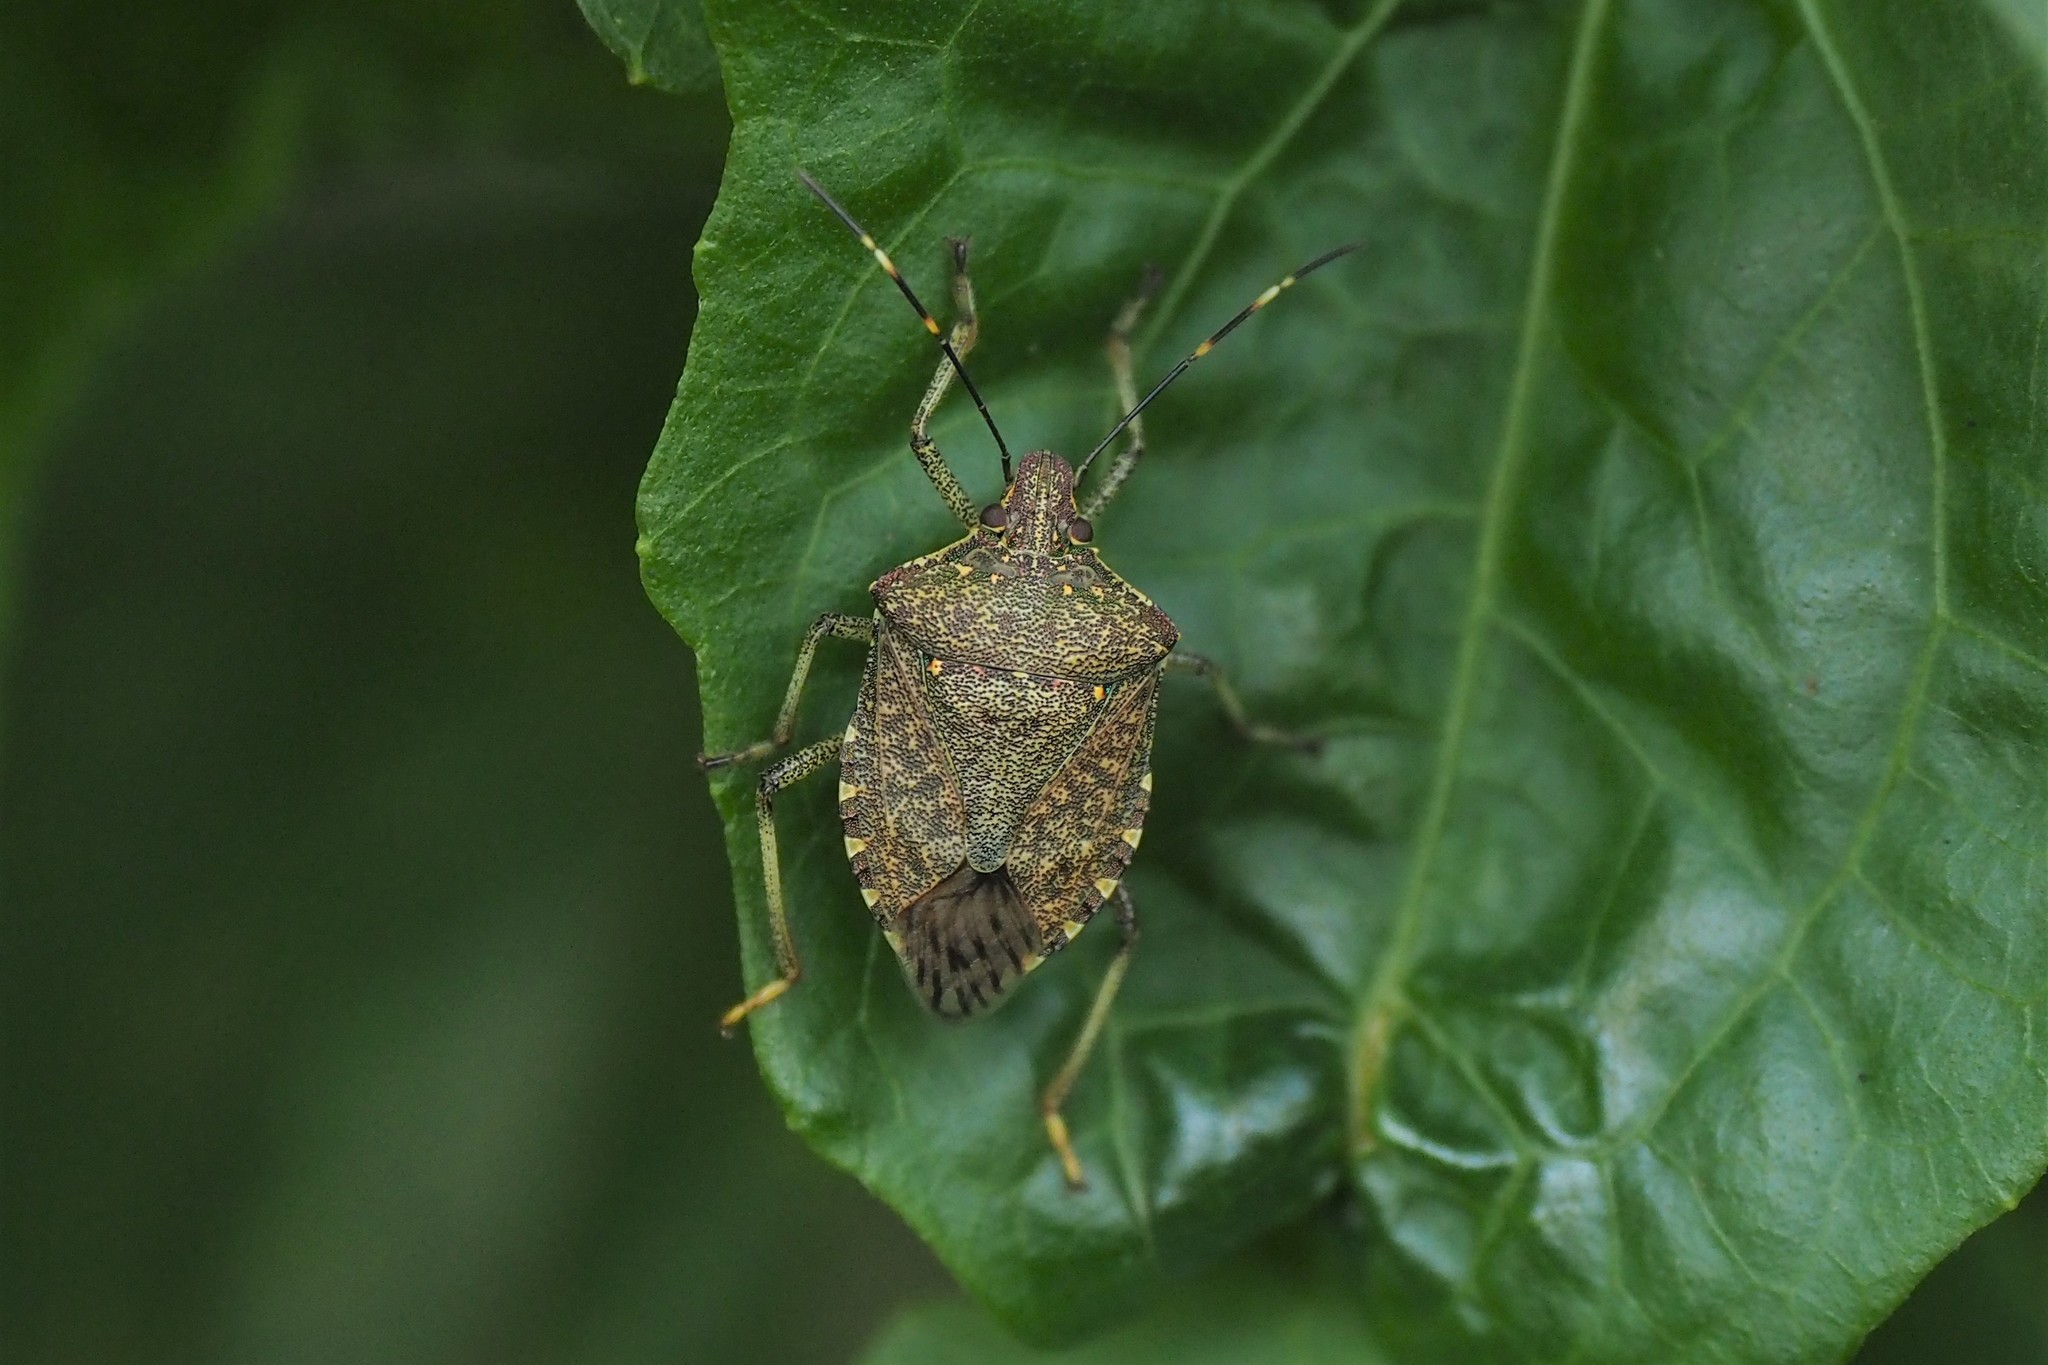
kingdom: Animalia
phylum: Arthropoda
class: Insecta
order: Hemiptera
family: Pentatomidae
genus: Halyomorpha
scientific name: Halyomorpha halys
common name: Brown marmorated stink bug
